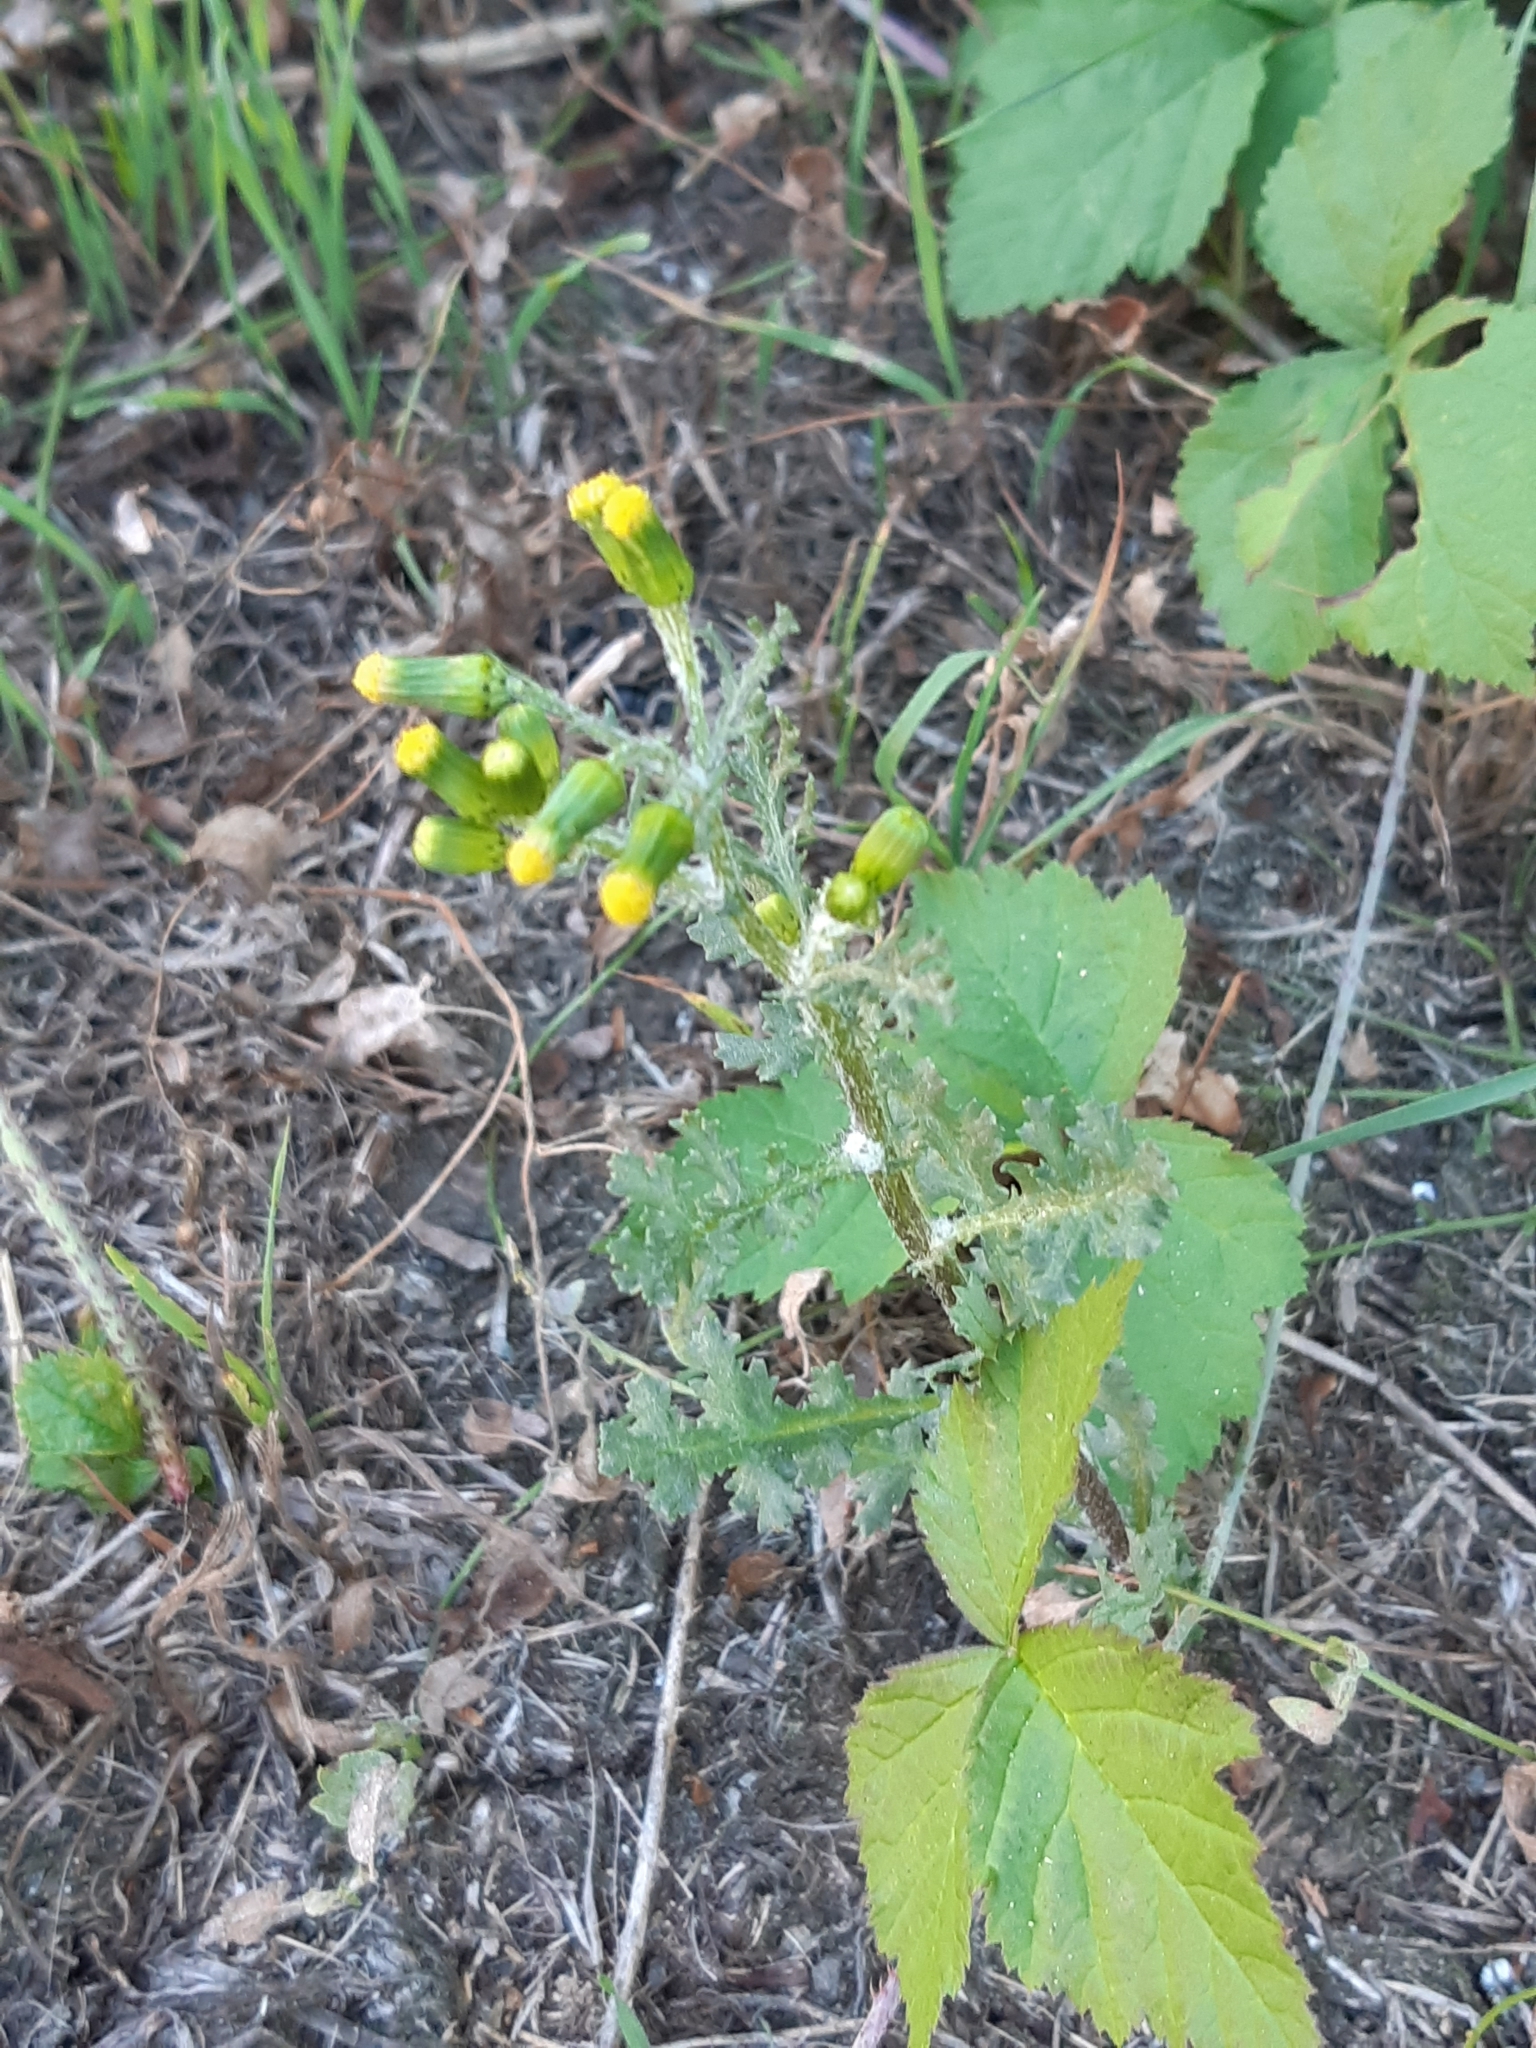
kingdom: Plantae
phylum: Tracheophyta
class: Magnoliopsida
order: Asterales
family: Asteraceae
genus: Senecio
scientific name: Senecio vulgaris
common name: Old-man-in-the-spring
